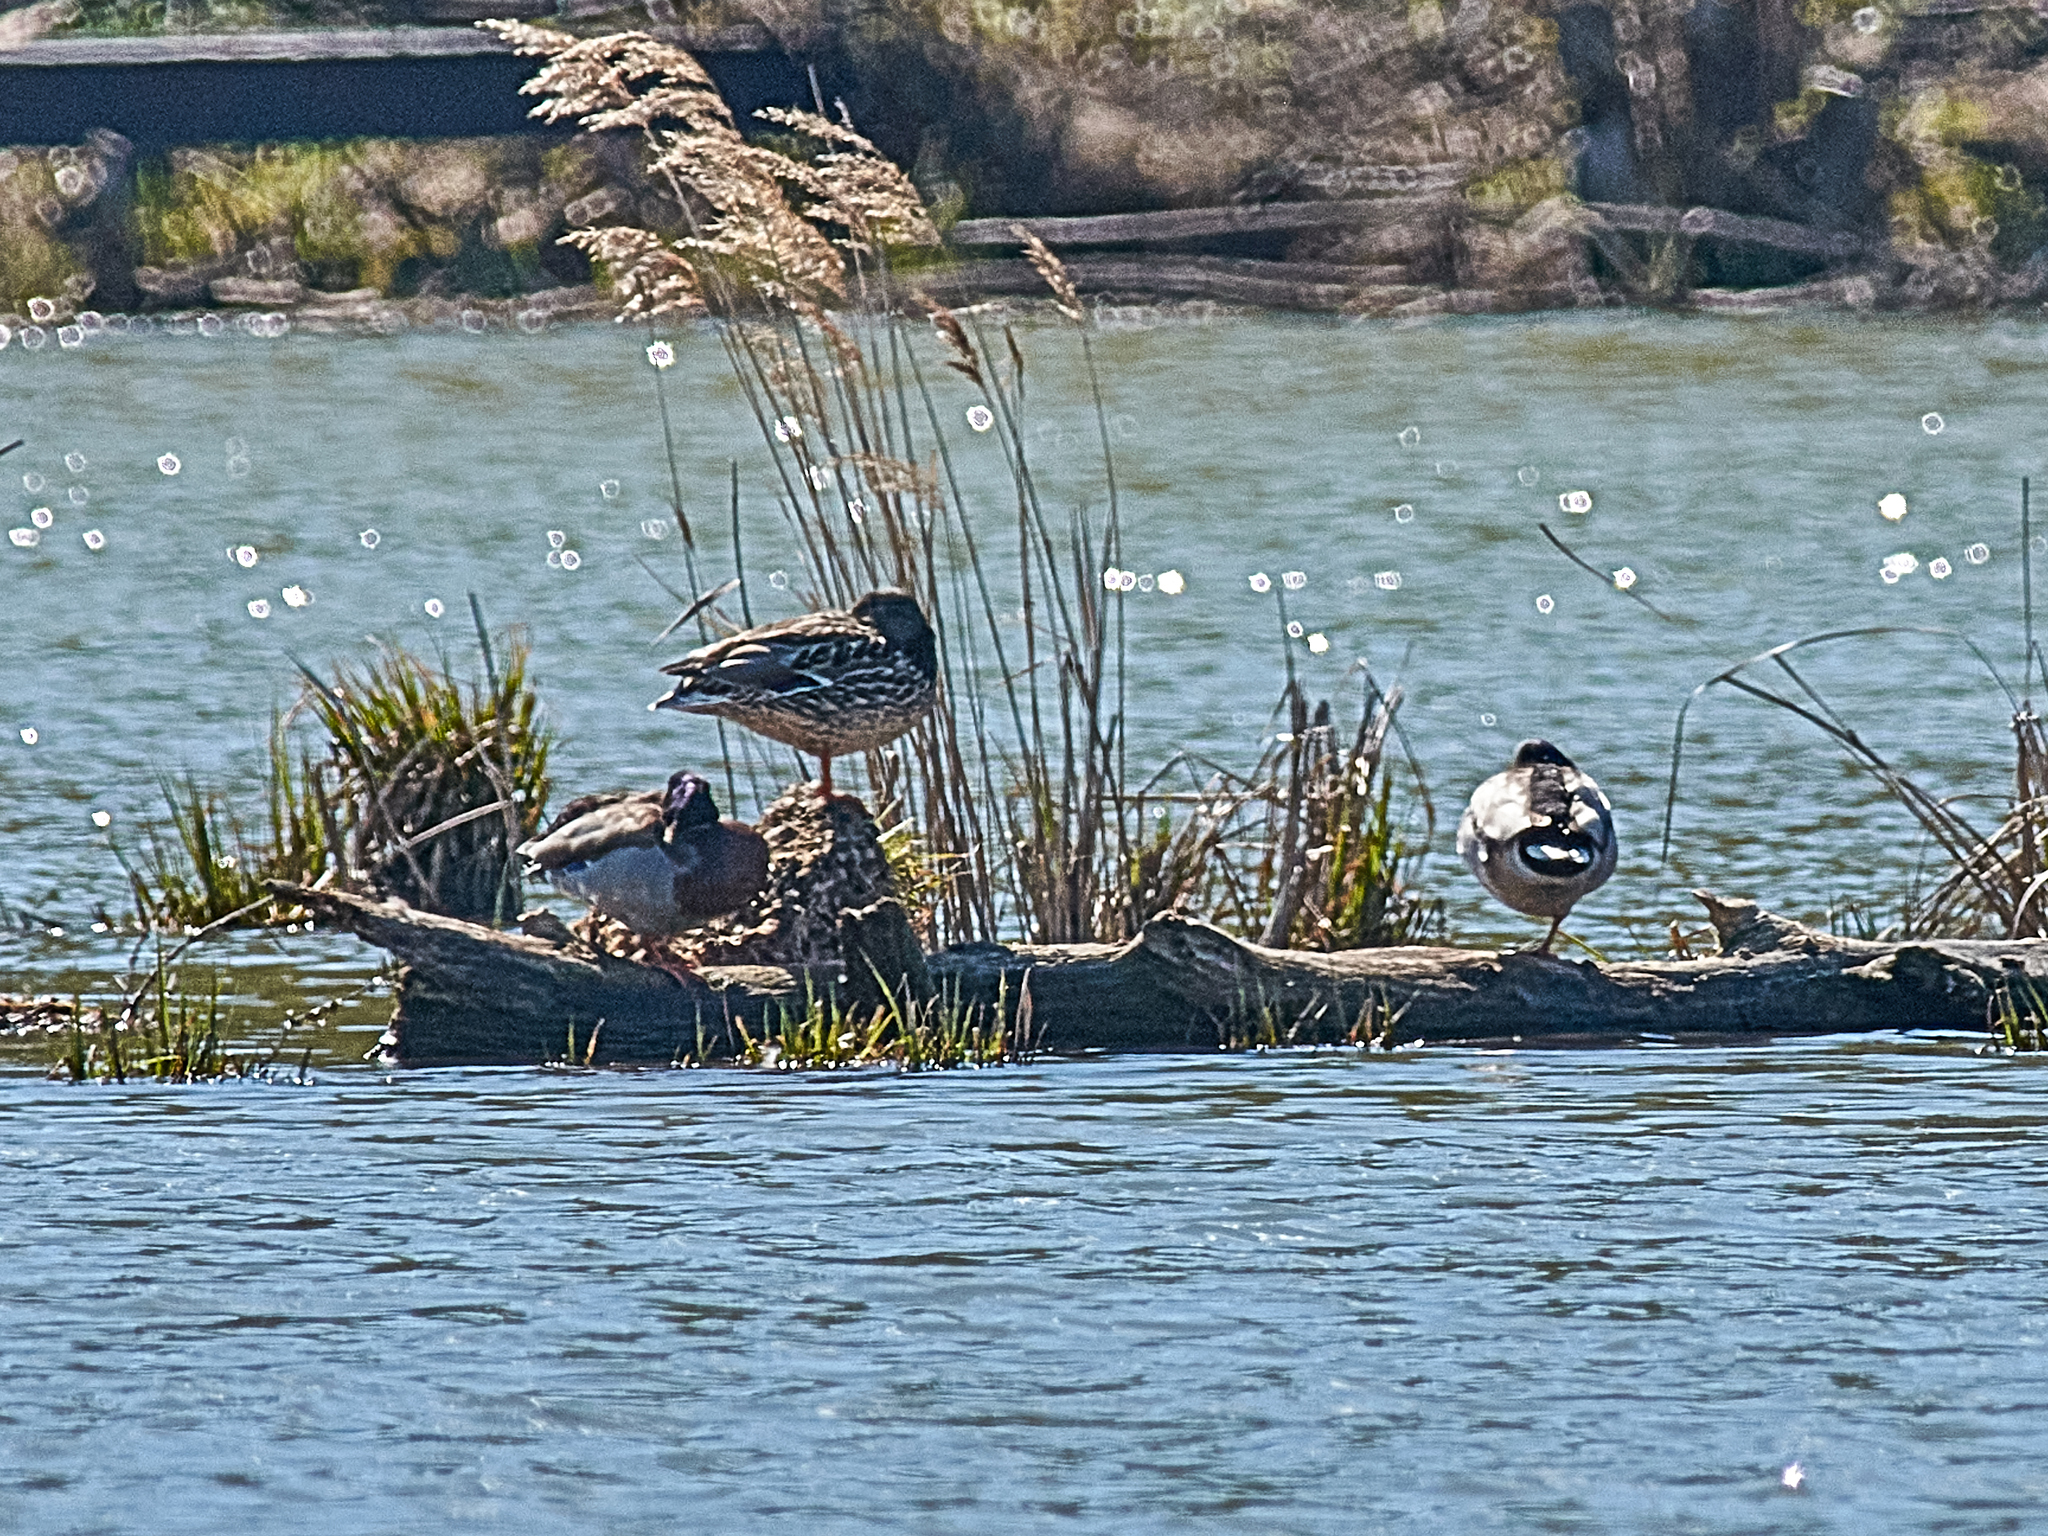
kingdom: Animalia
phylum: Chordata
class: Aves
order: Anseriformes
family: Anatidae
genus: Anas
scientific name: Anas platyrhynchos
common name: Mallard
